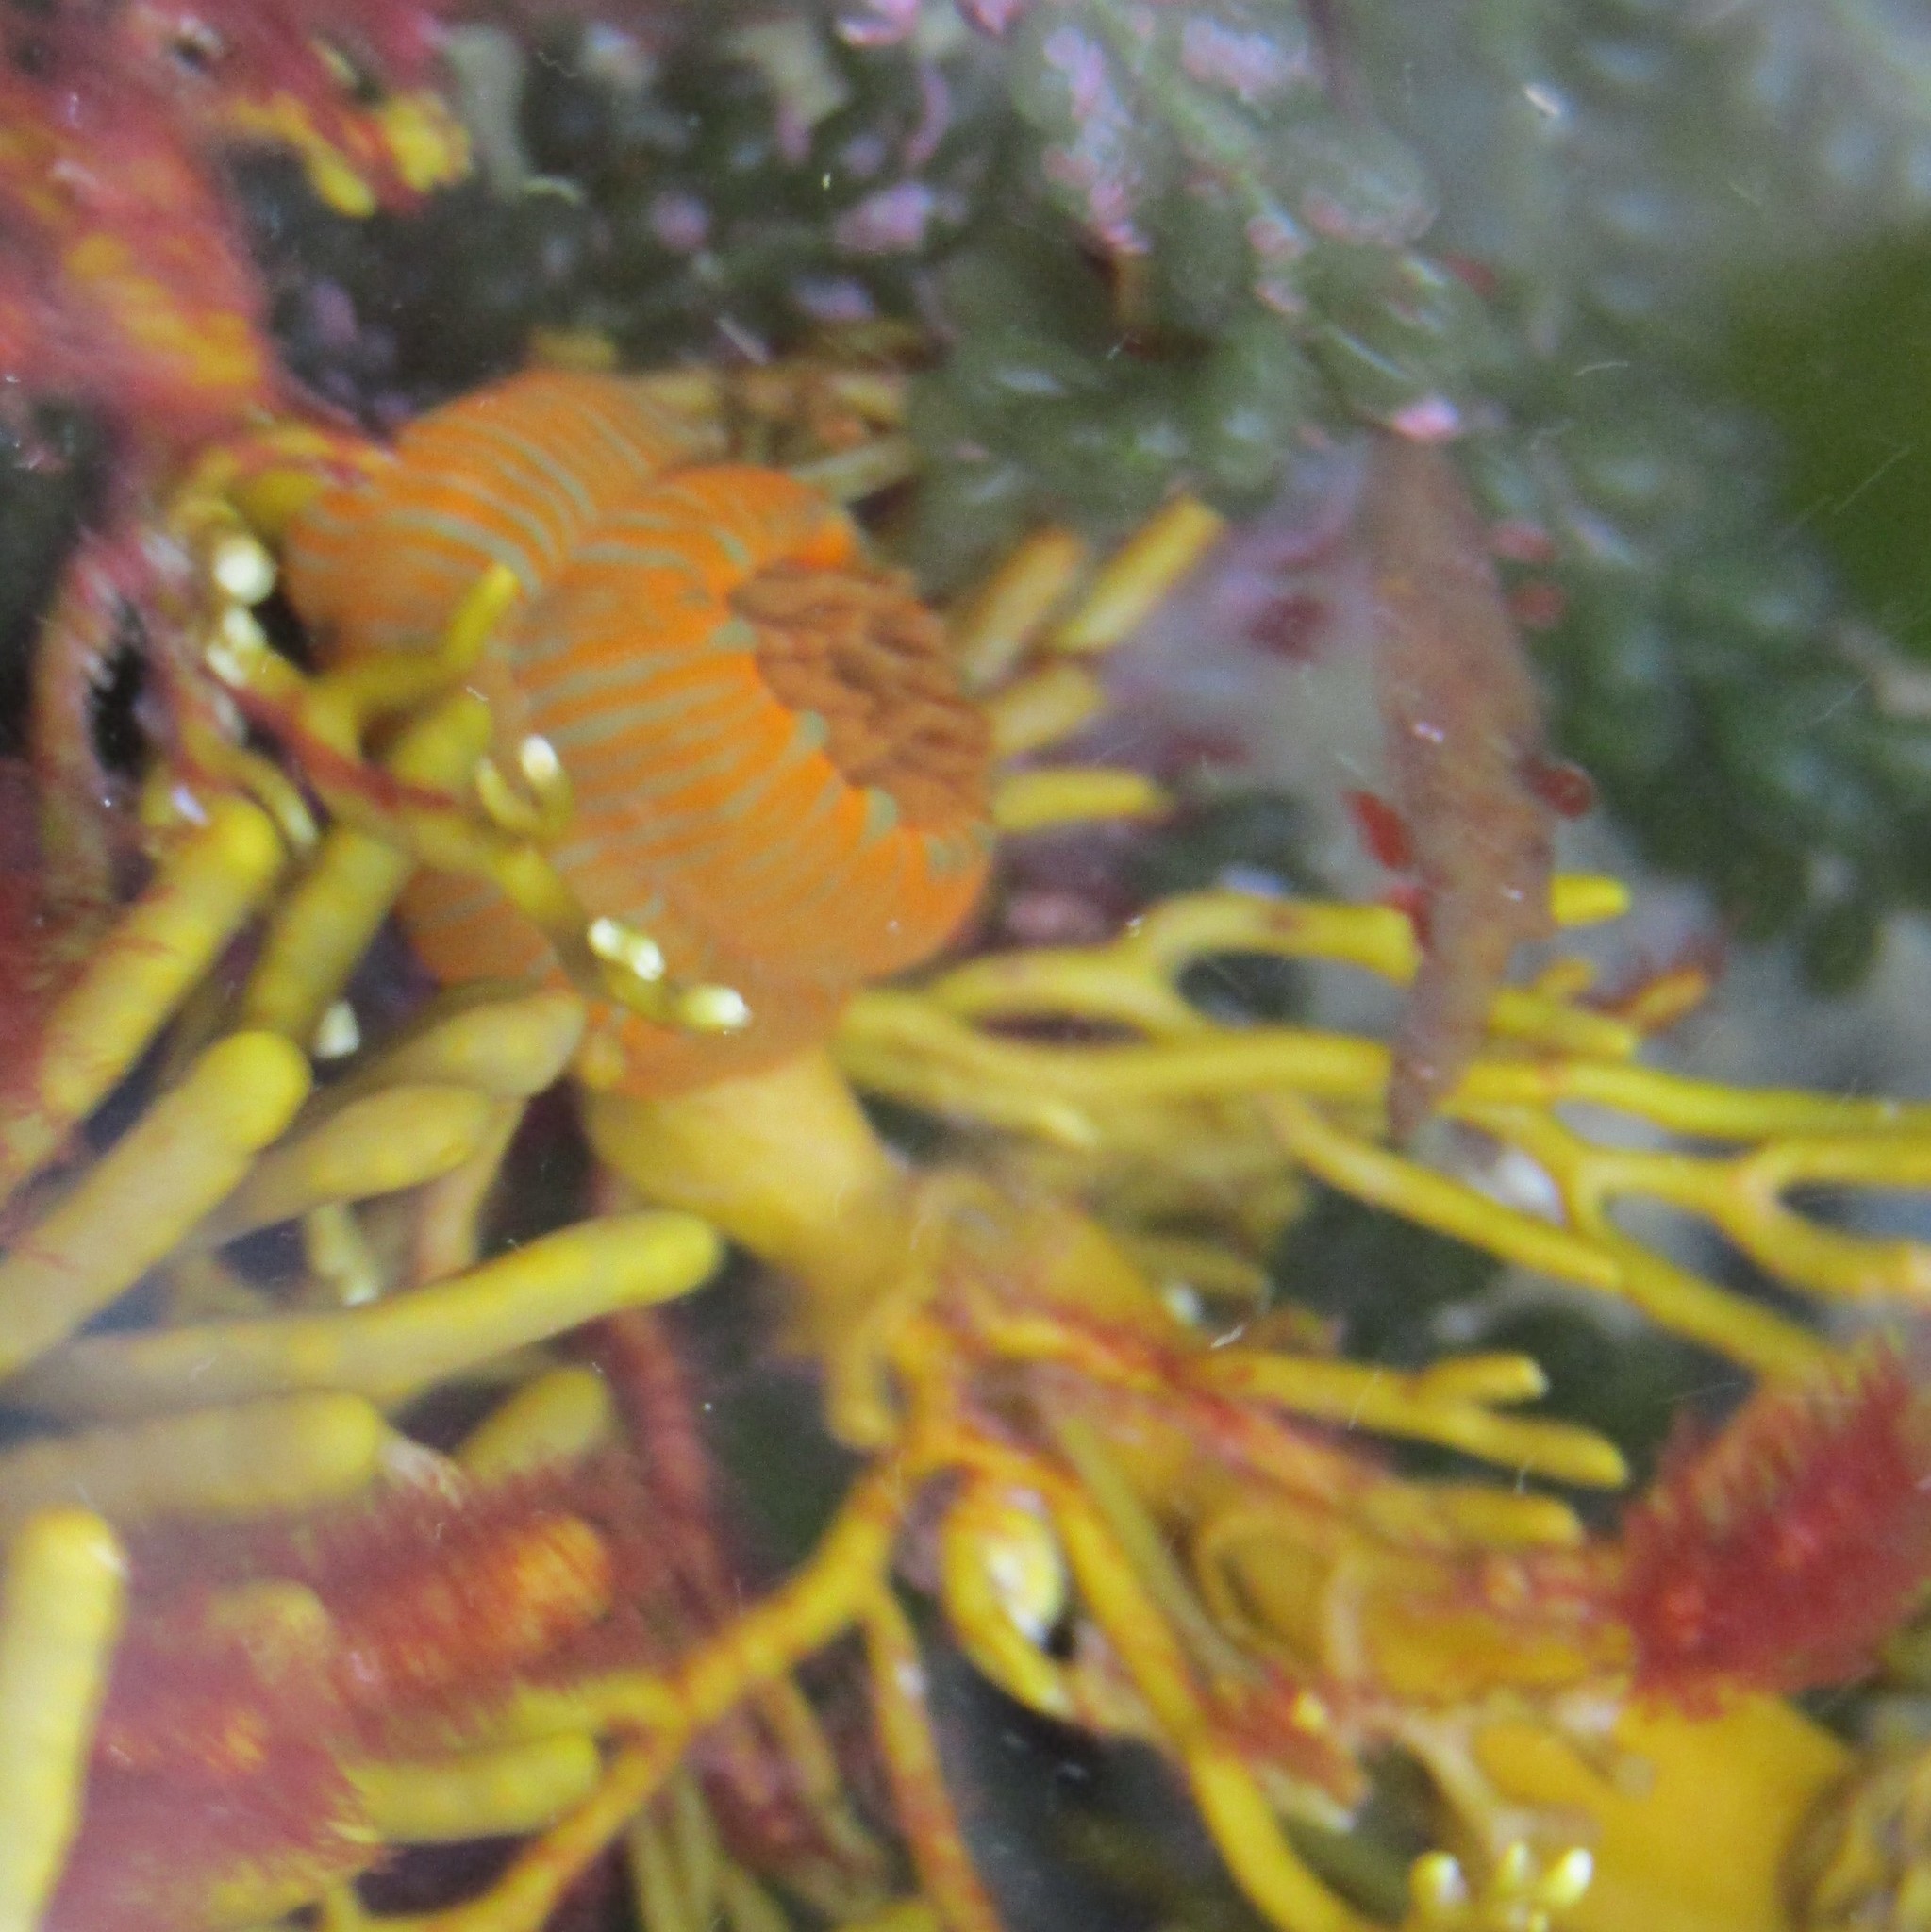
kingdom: Animalia
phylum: Cnidaria
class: Anthozoa
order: Actiniaria
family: Actiniidae
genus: Epiactis
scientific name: Epiactis
